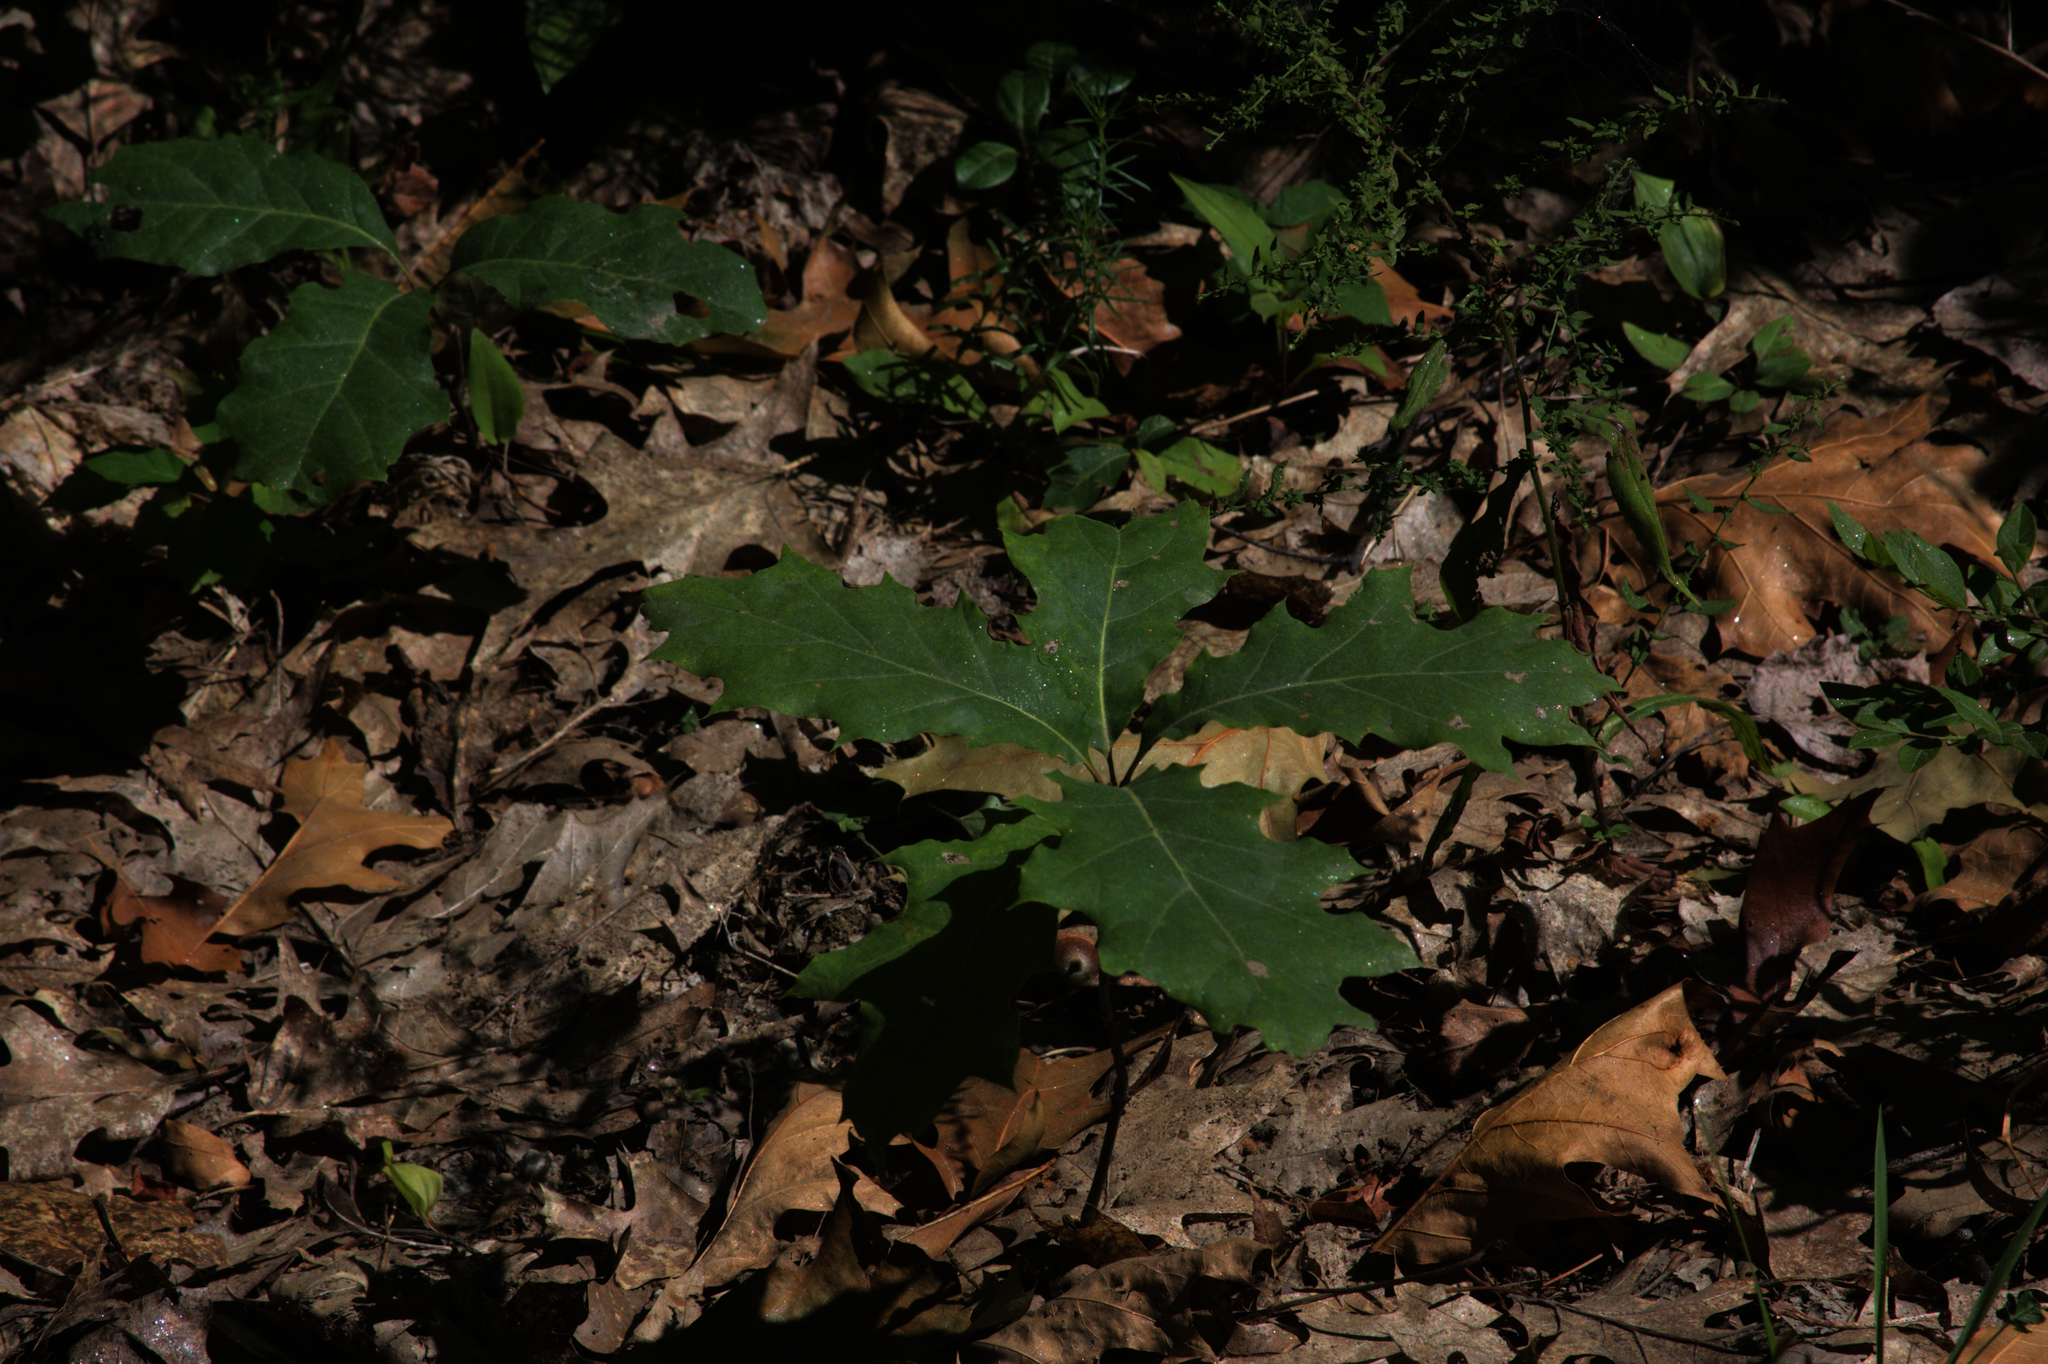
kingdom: Plantae
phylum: Tracheophyta
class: Magnoliopsida
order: Fagales
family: Fagaceae
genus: Quercus
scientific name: Quercus rubra
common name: Red oak
